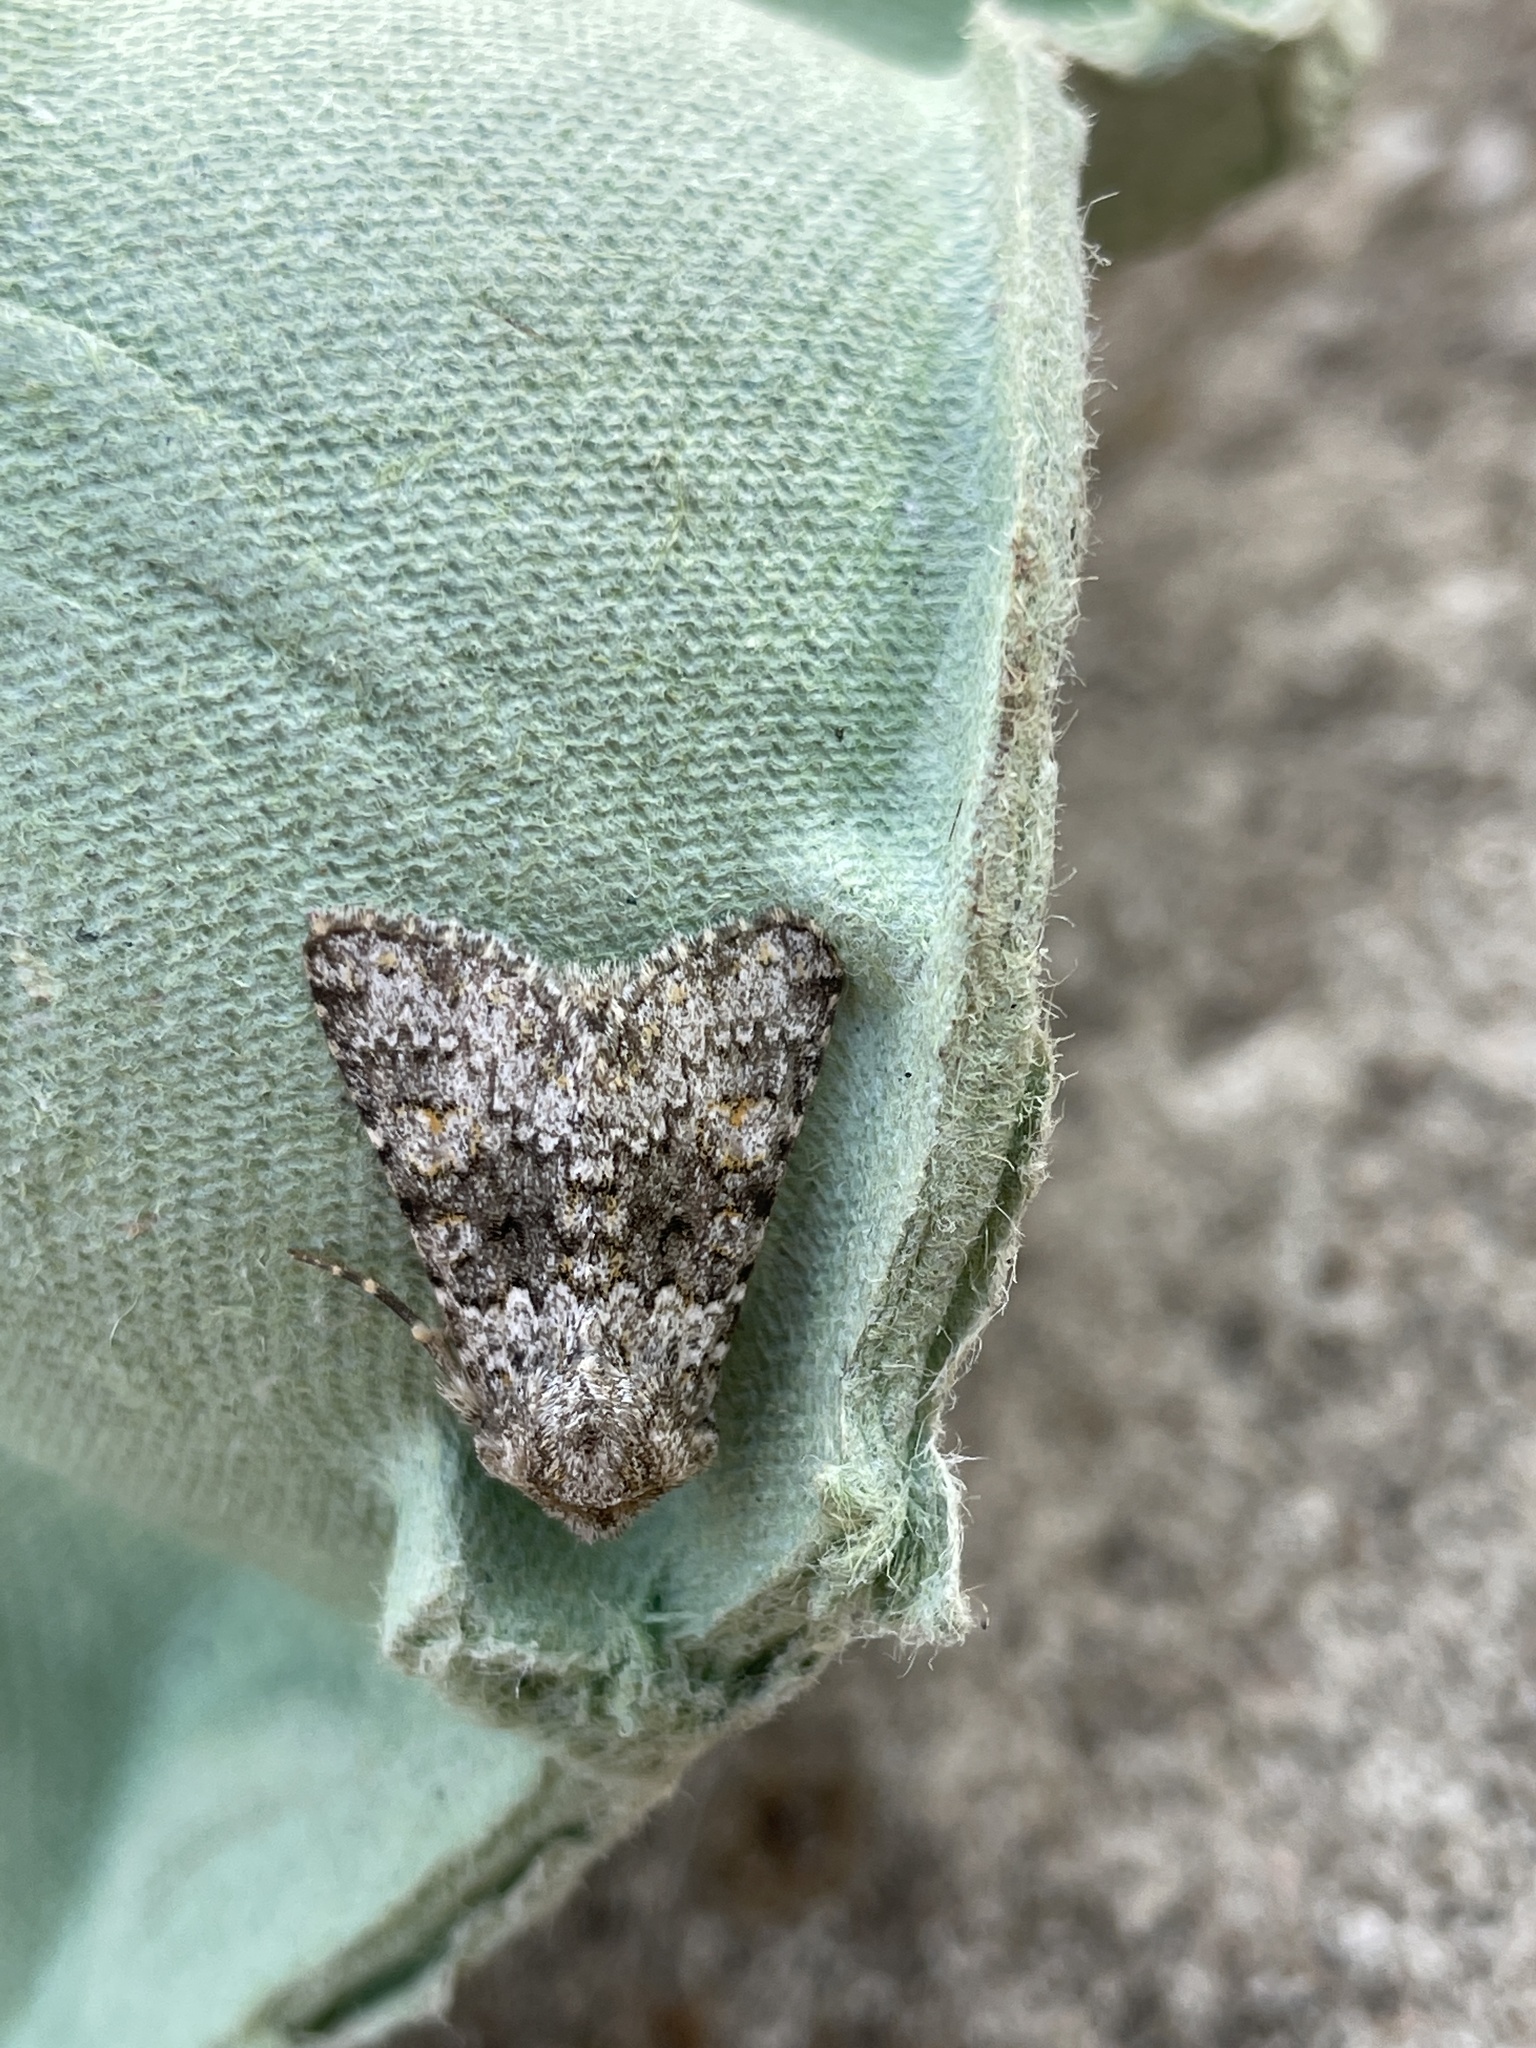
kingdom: Animalia
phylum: Arthropoda
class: Insecta
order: Lepidoptera
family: Noctuidae
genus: Hecatera
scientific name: Hecatera dysodea
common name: Small ranunculus
